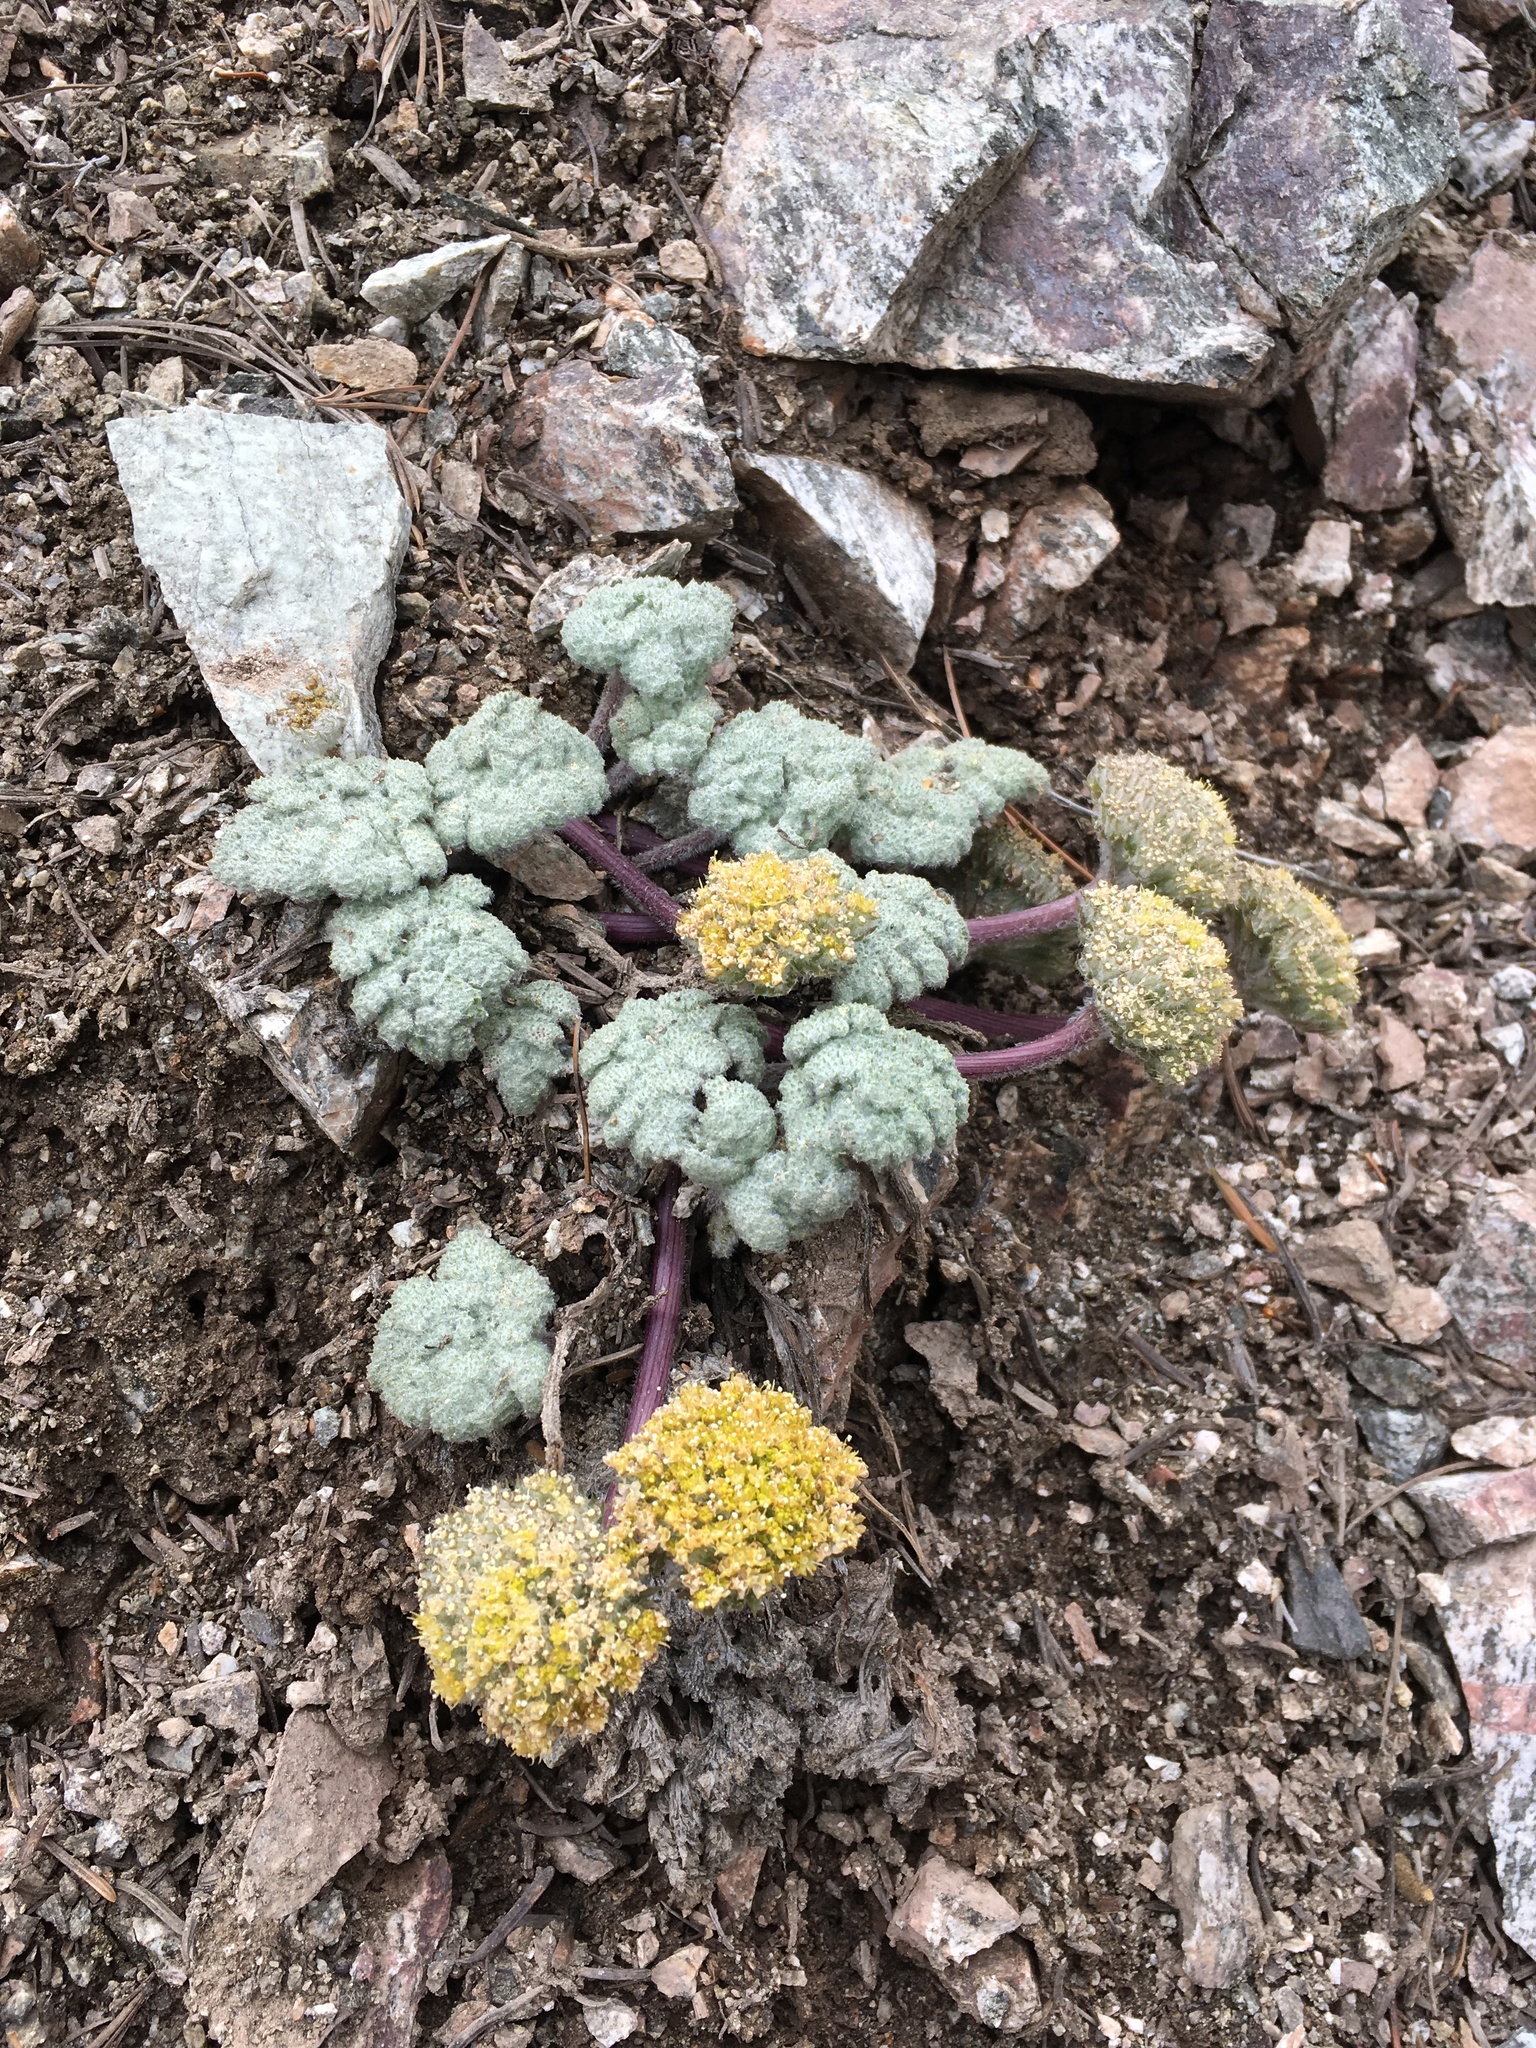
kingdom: Plantae
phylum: Tracheophyta
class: Magnoliopsida
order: Apiales
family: Apiaceae
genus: Oreonana
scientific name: Oreonana vestita
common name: Woolly mountain-parsley
